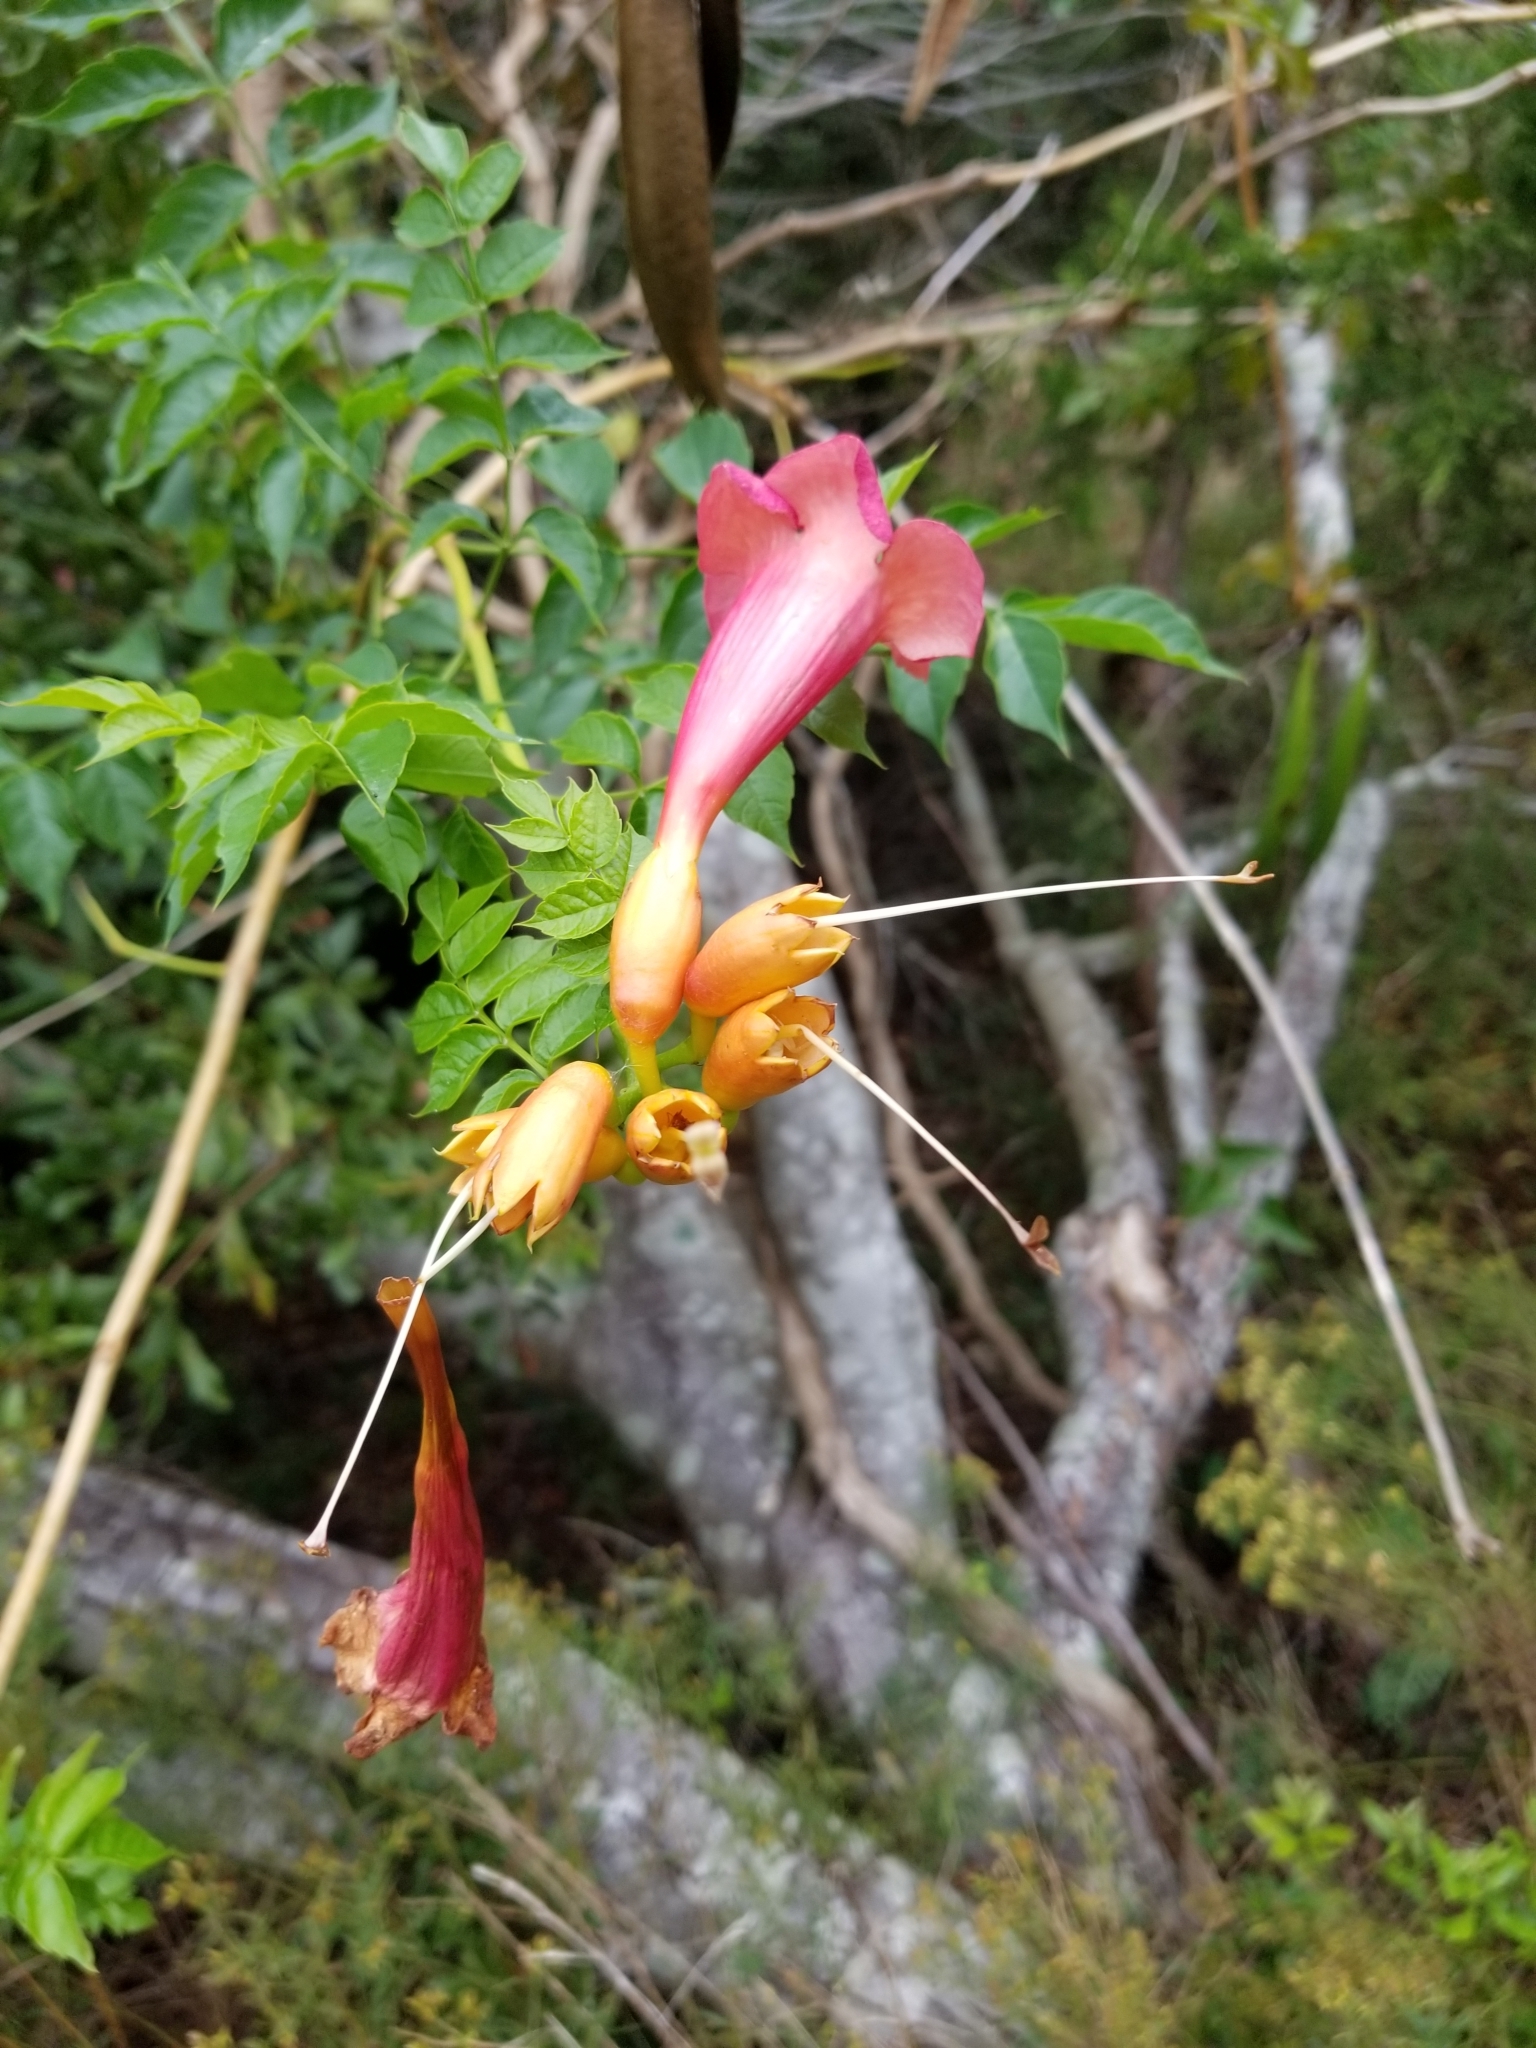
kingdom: Plantae
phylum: Tracheophyta
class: Magnoliopsida
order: Lamiales
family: Bignoniaceae
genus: Campsis
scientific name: Campsis radicans
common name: Trumpet-creeper
